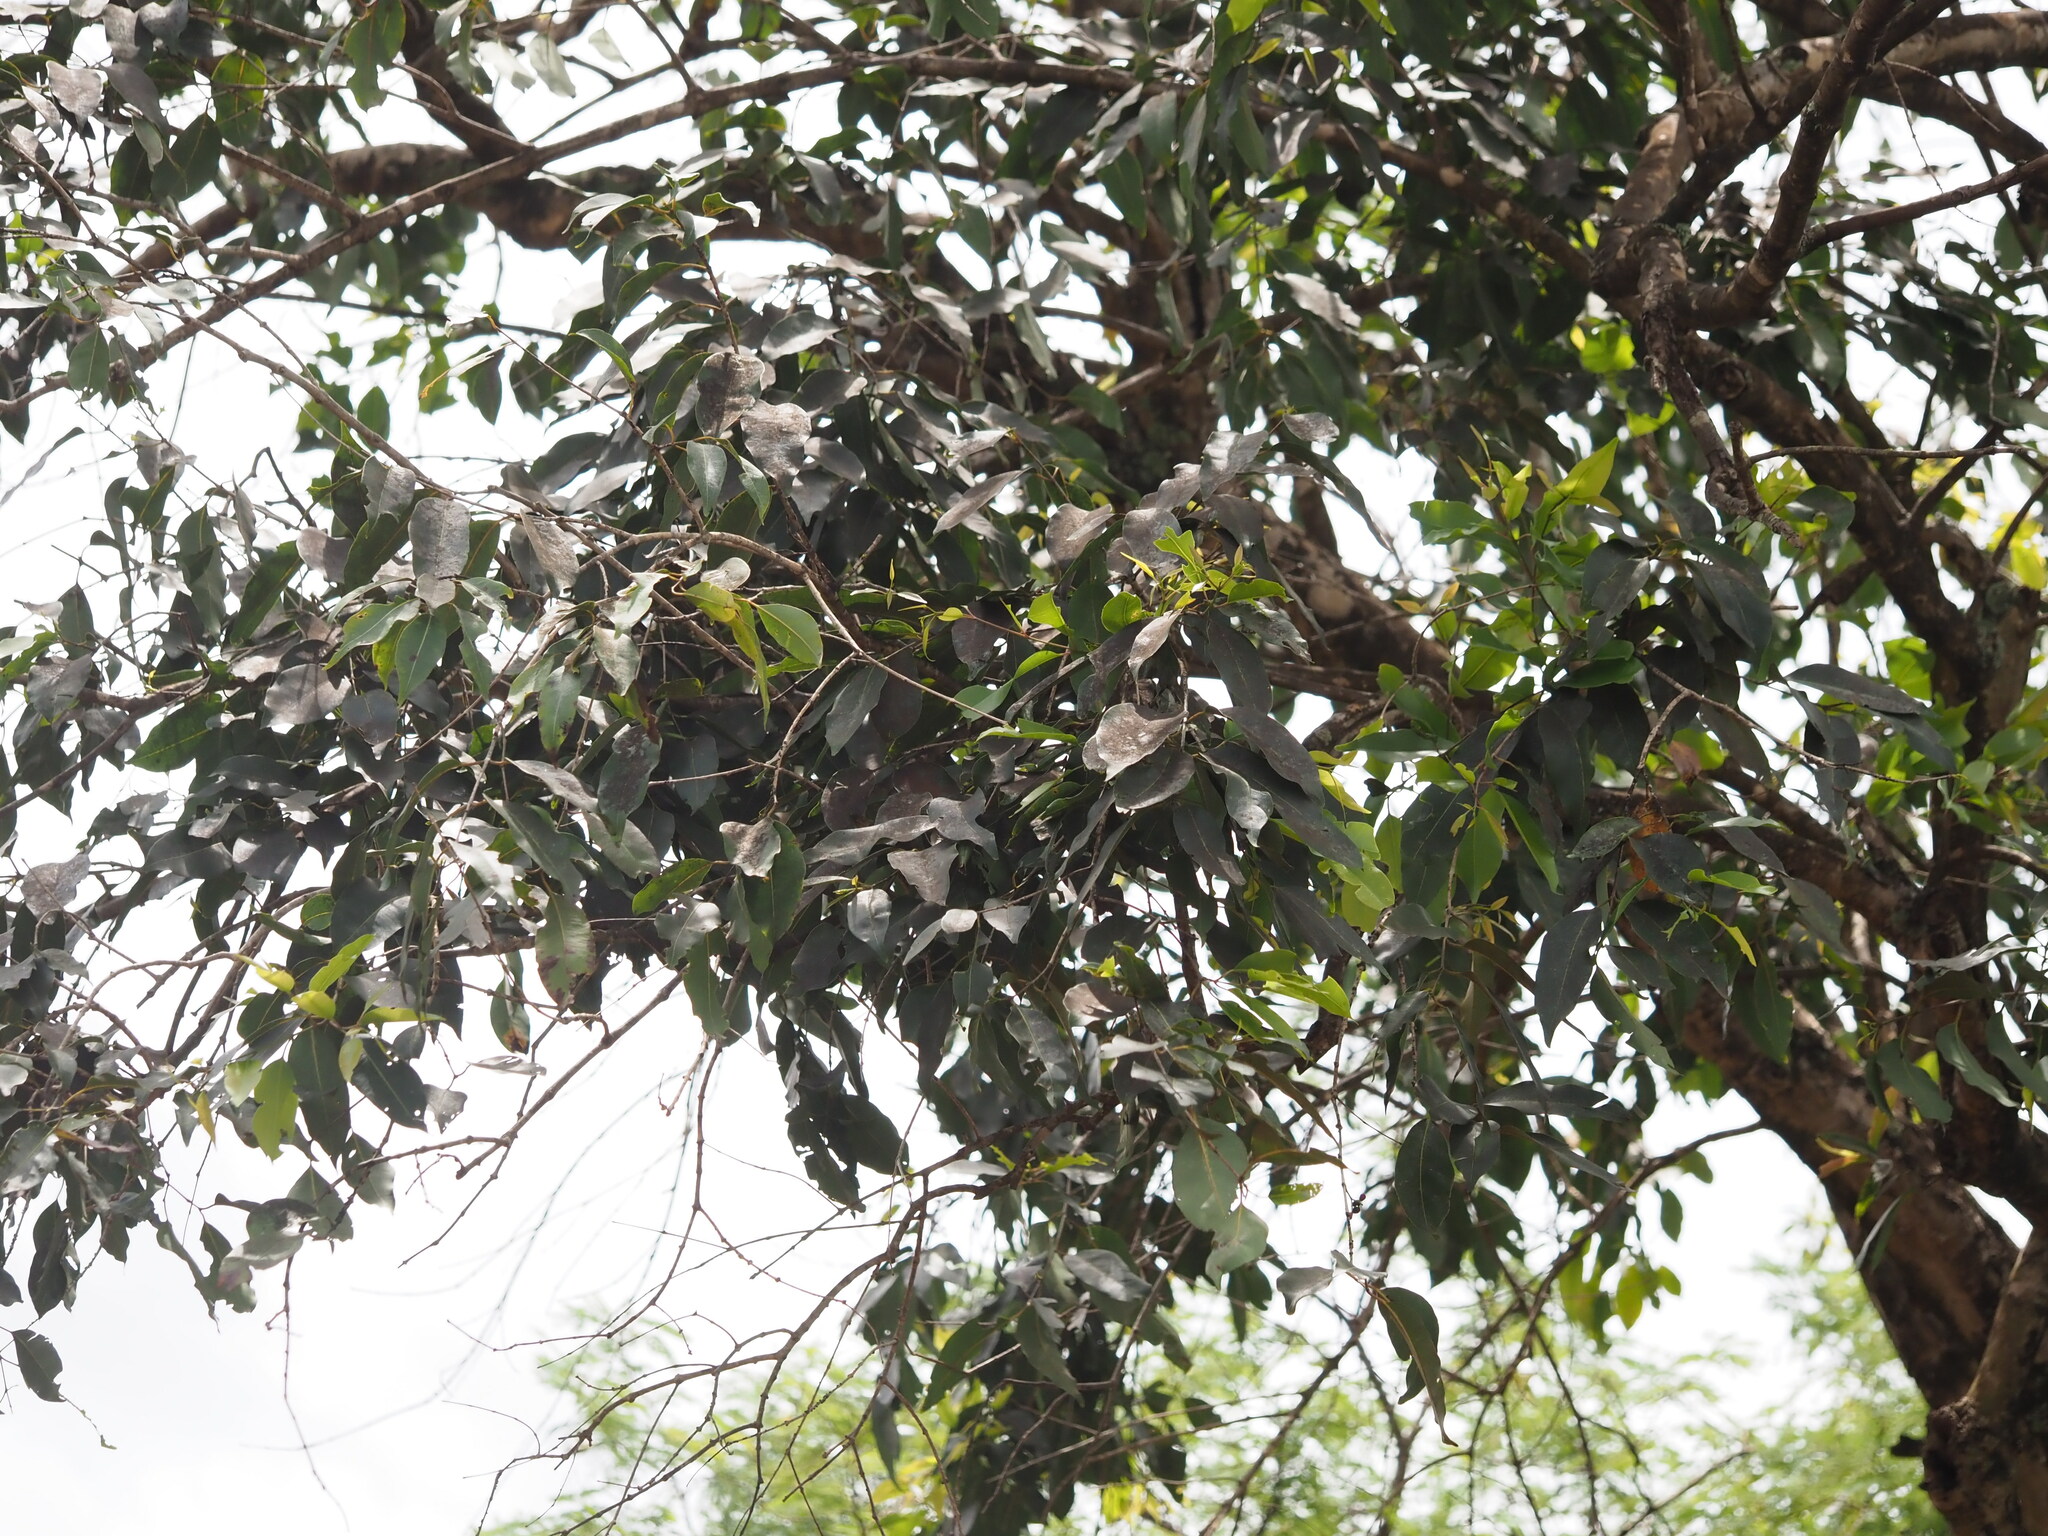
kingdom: Plantae
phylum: Tracheophyta
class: Magnoliopsida
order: Myrtales
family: Myrtaceae
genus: Syzygium
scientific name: Syzygium cumini
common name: Java plum
